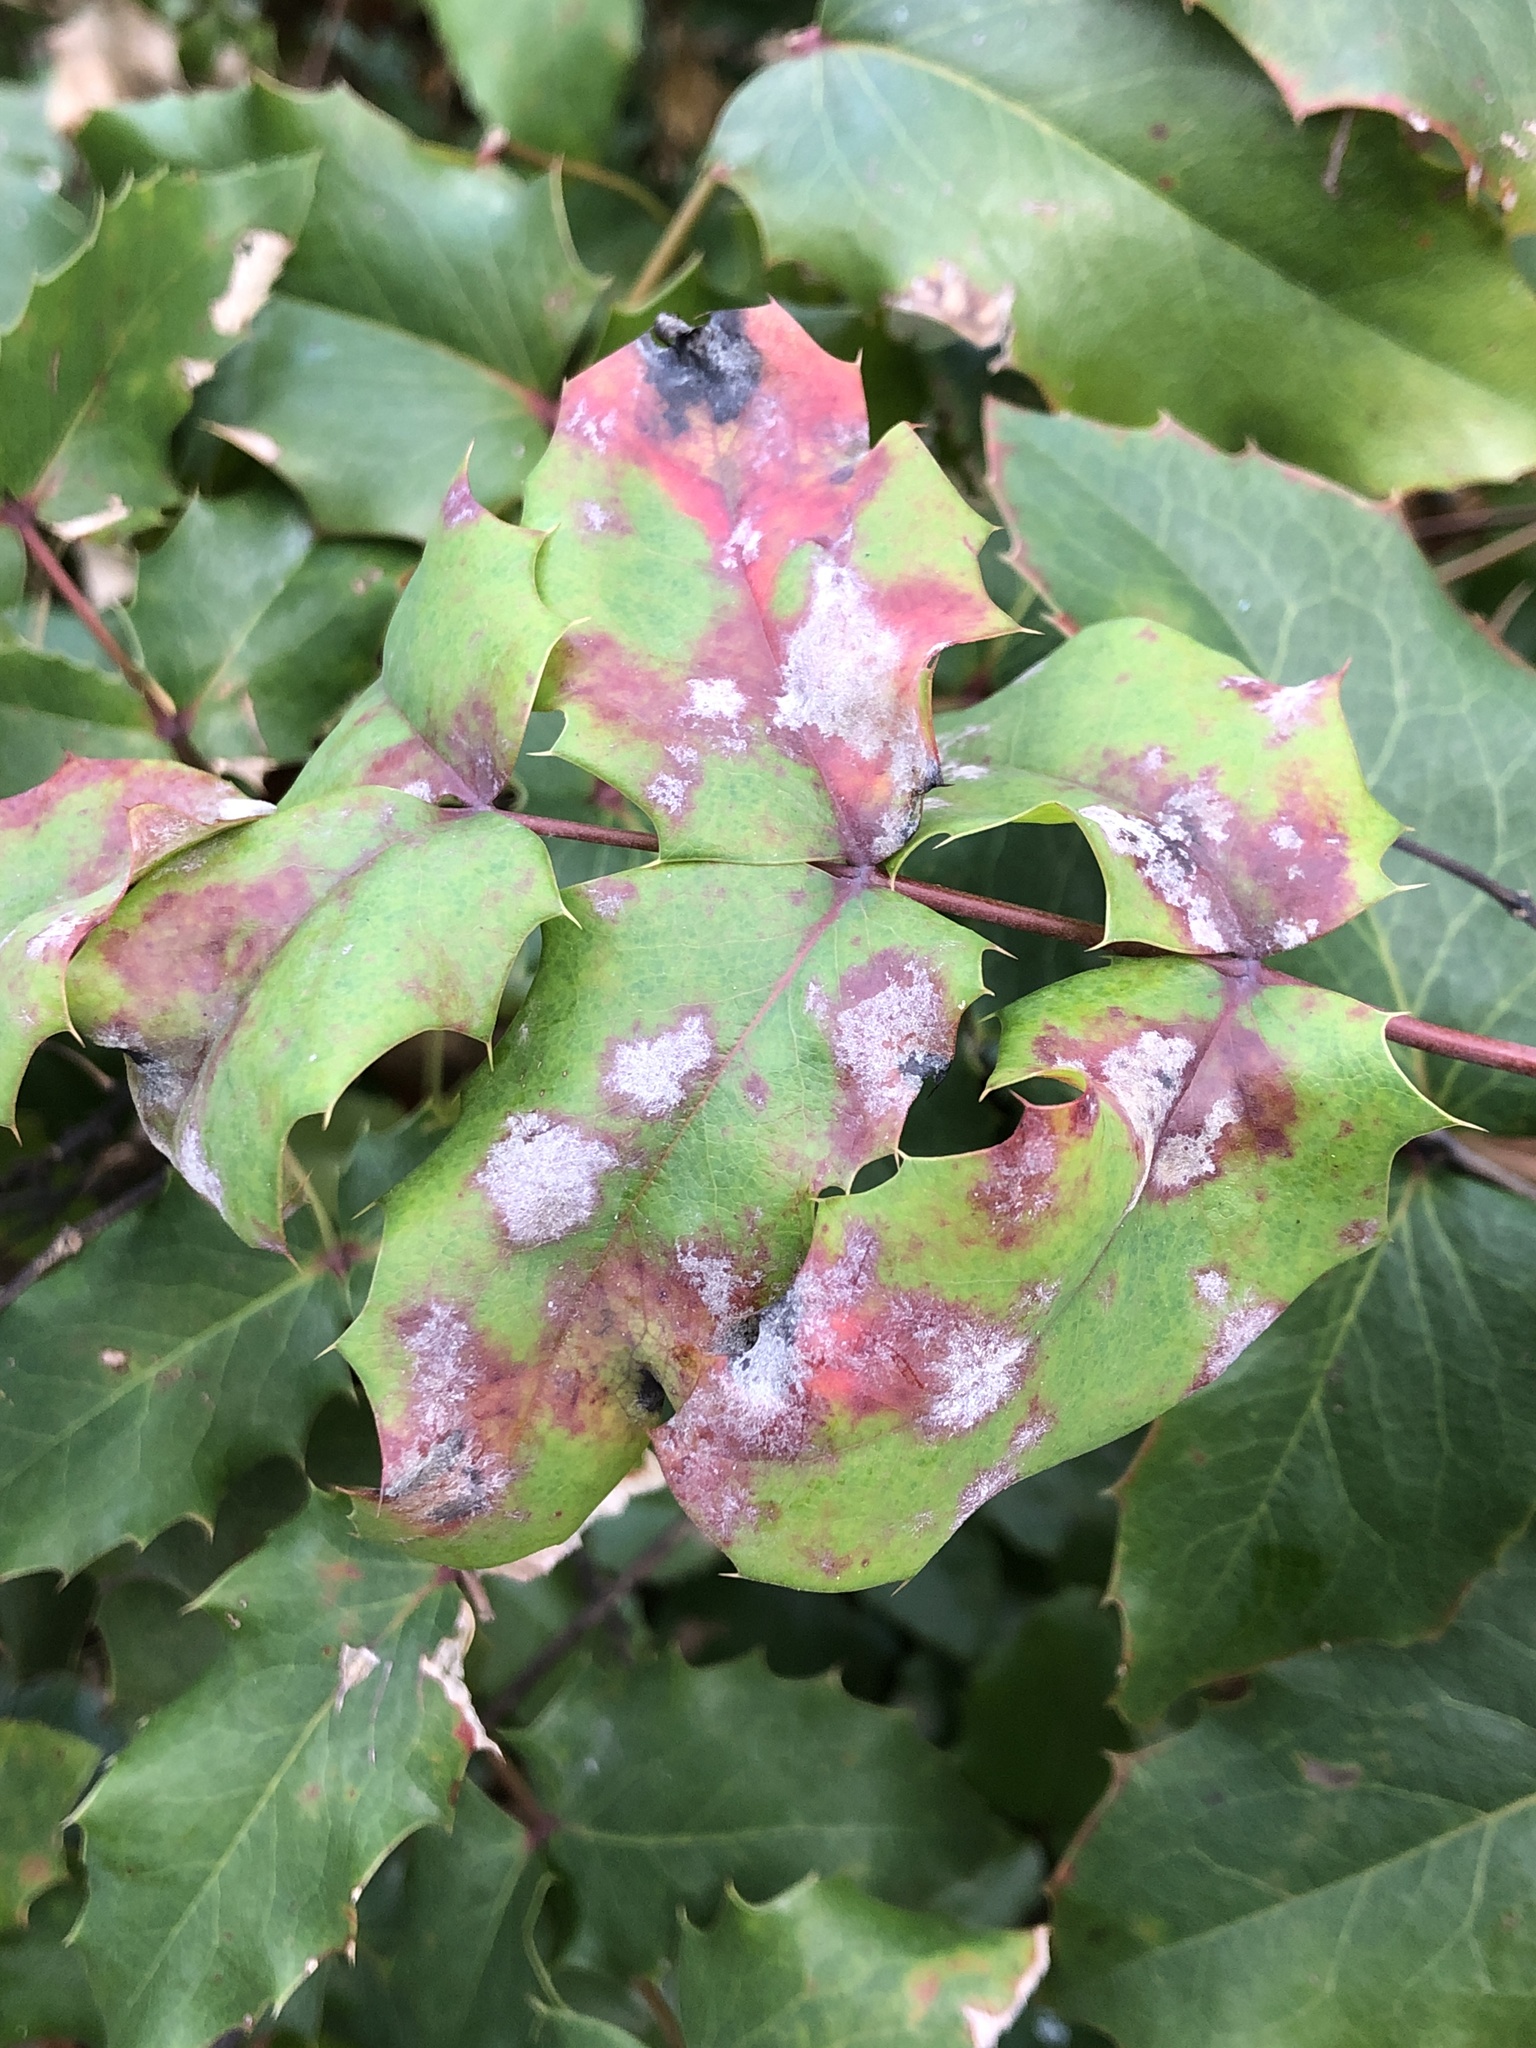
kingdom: Fungi
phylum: Ascomycota
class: Leotiomycetes
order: Helotiales
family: Erysiphaceae
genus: Erysiphe
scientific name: Erysiphe berberidis
